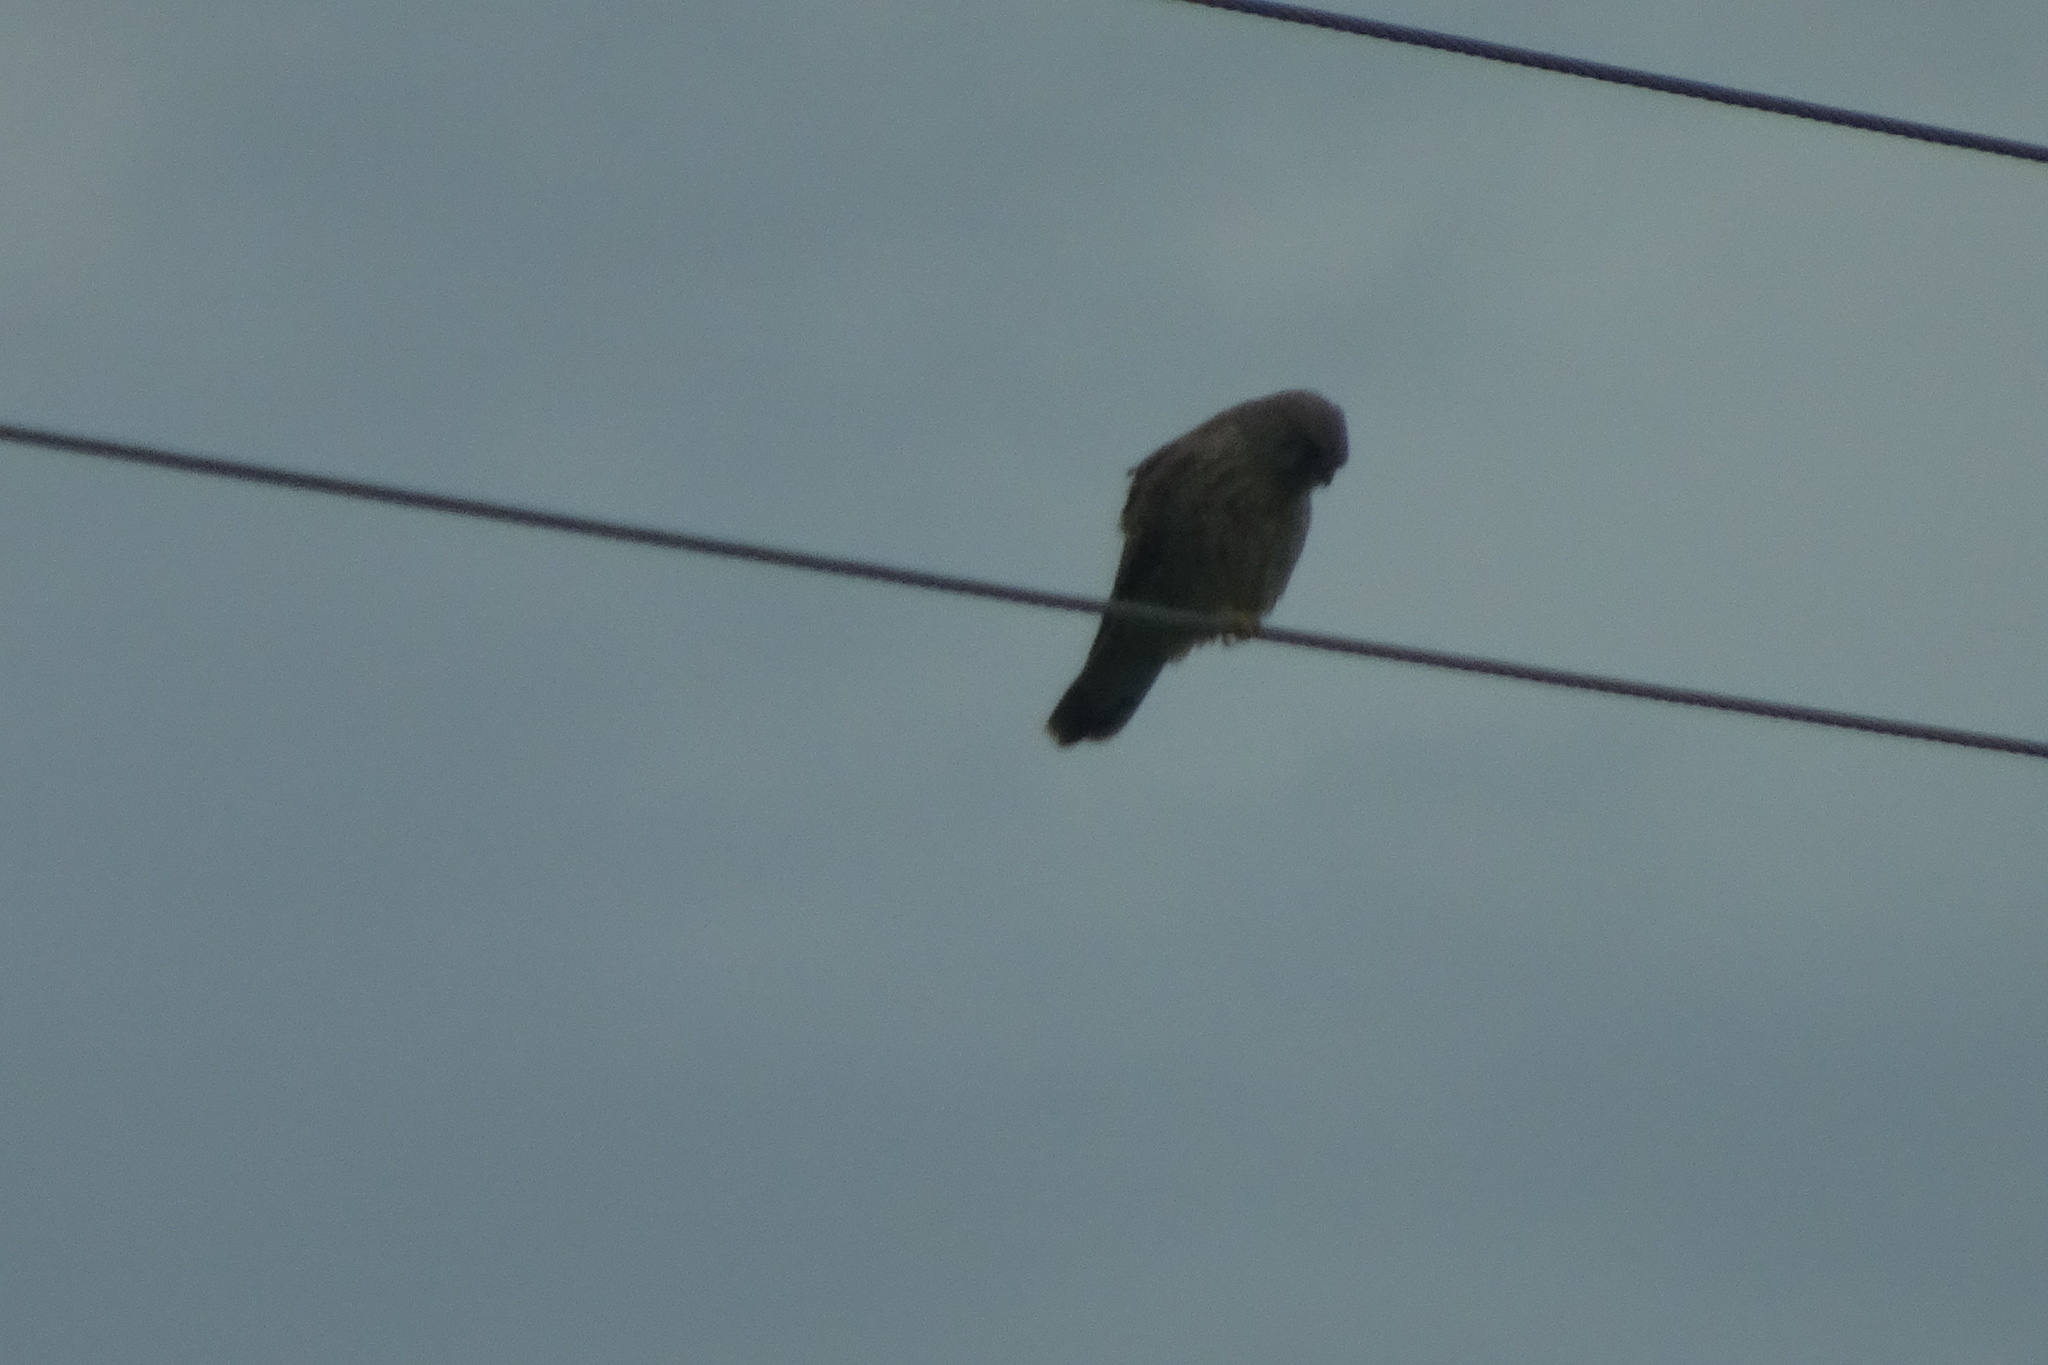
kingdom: Animalia
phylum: Chordata
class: Aves
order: Falconiformes
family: Falconidae
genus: Falco
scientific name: Falco tinnunculus
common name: Common kestrel
